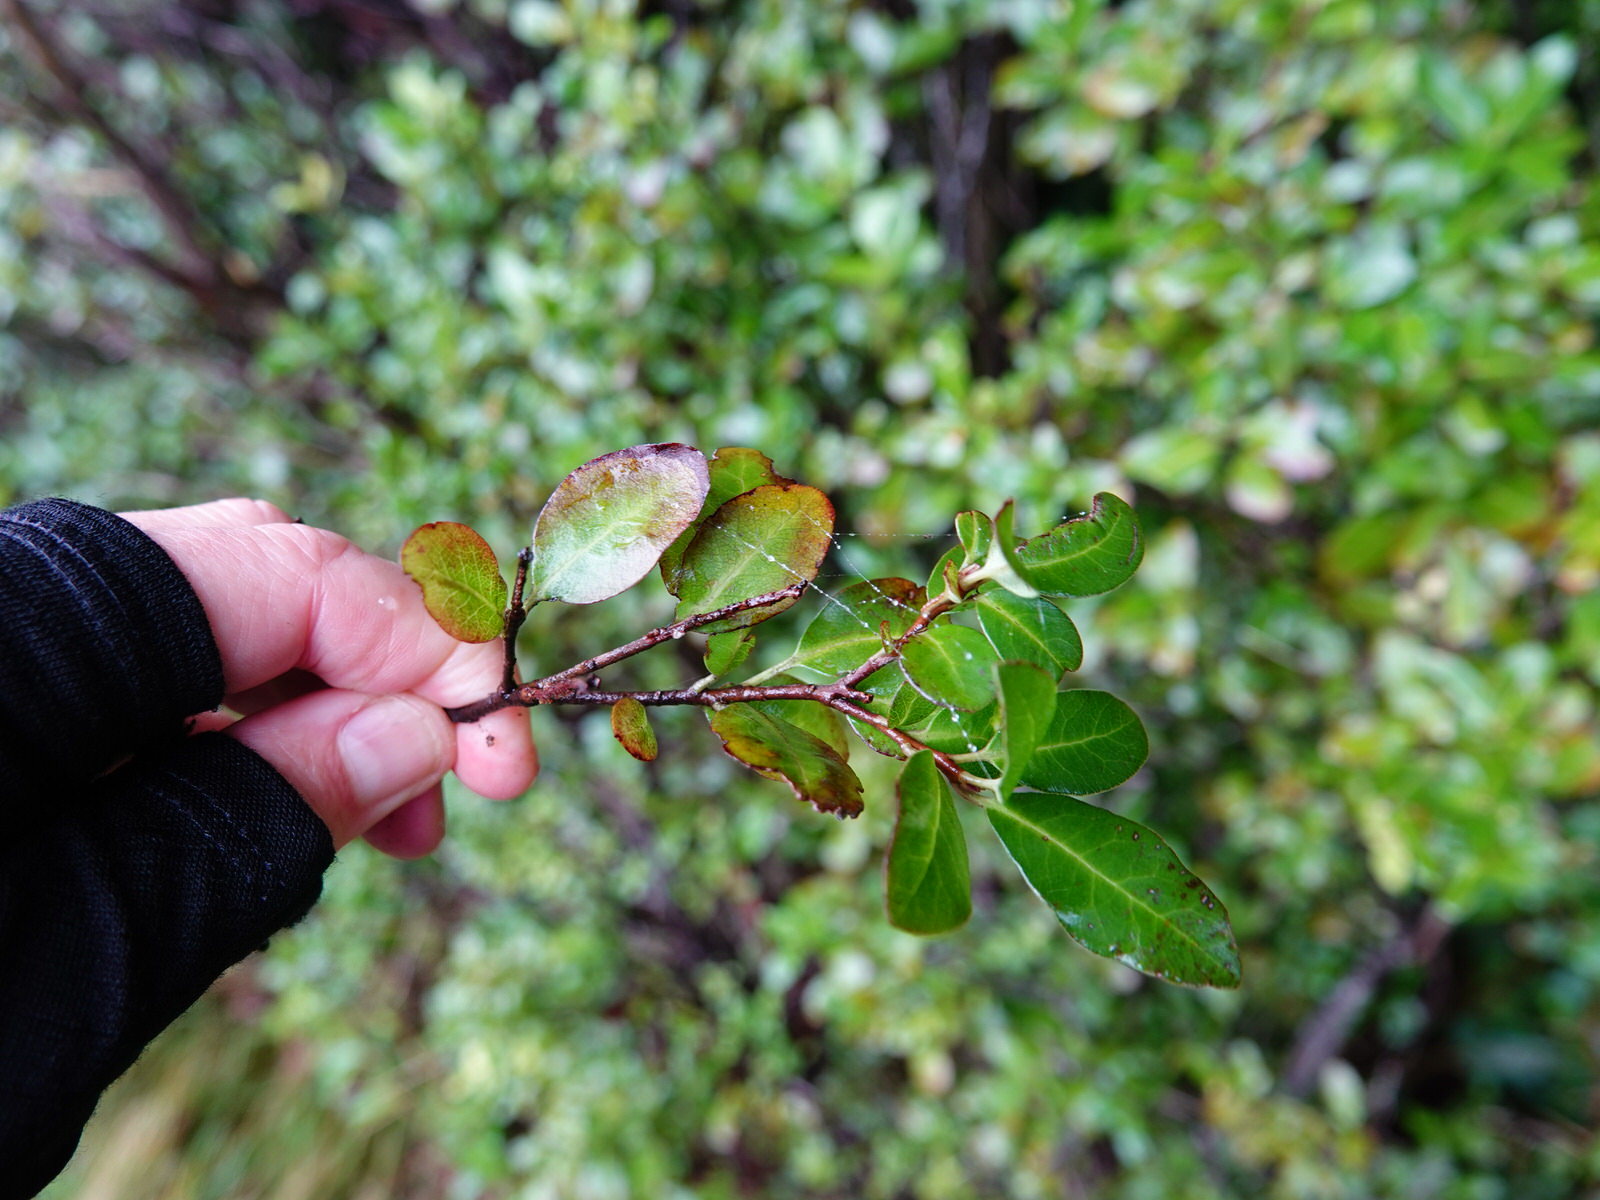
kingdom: Plantae
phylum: Tracheophyta
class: Magnoliopsida
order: Apiales
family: Pittosporaceae
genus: Pittosporum
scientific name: Pittosporum tenuifolium
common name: Kohuhu
